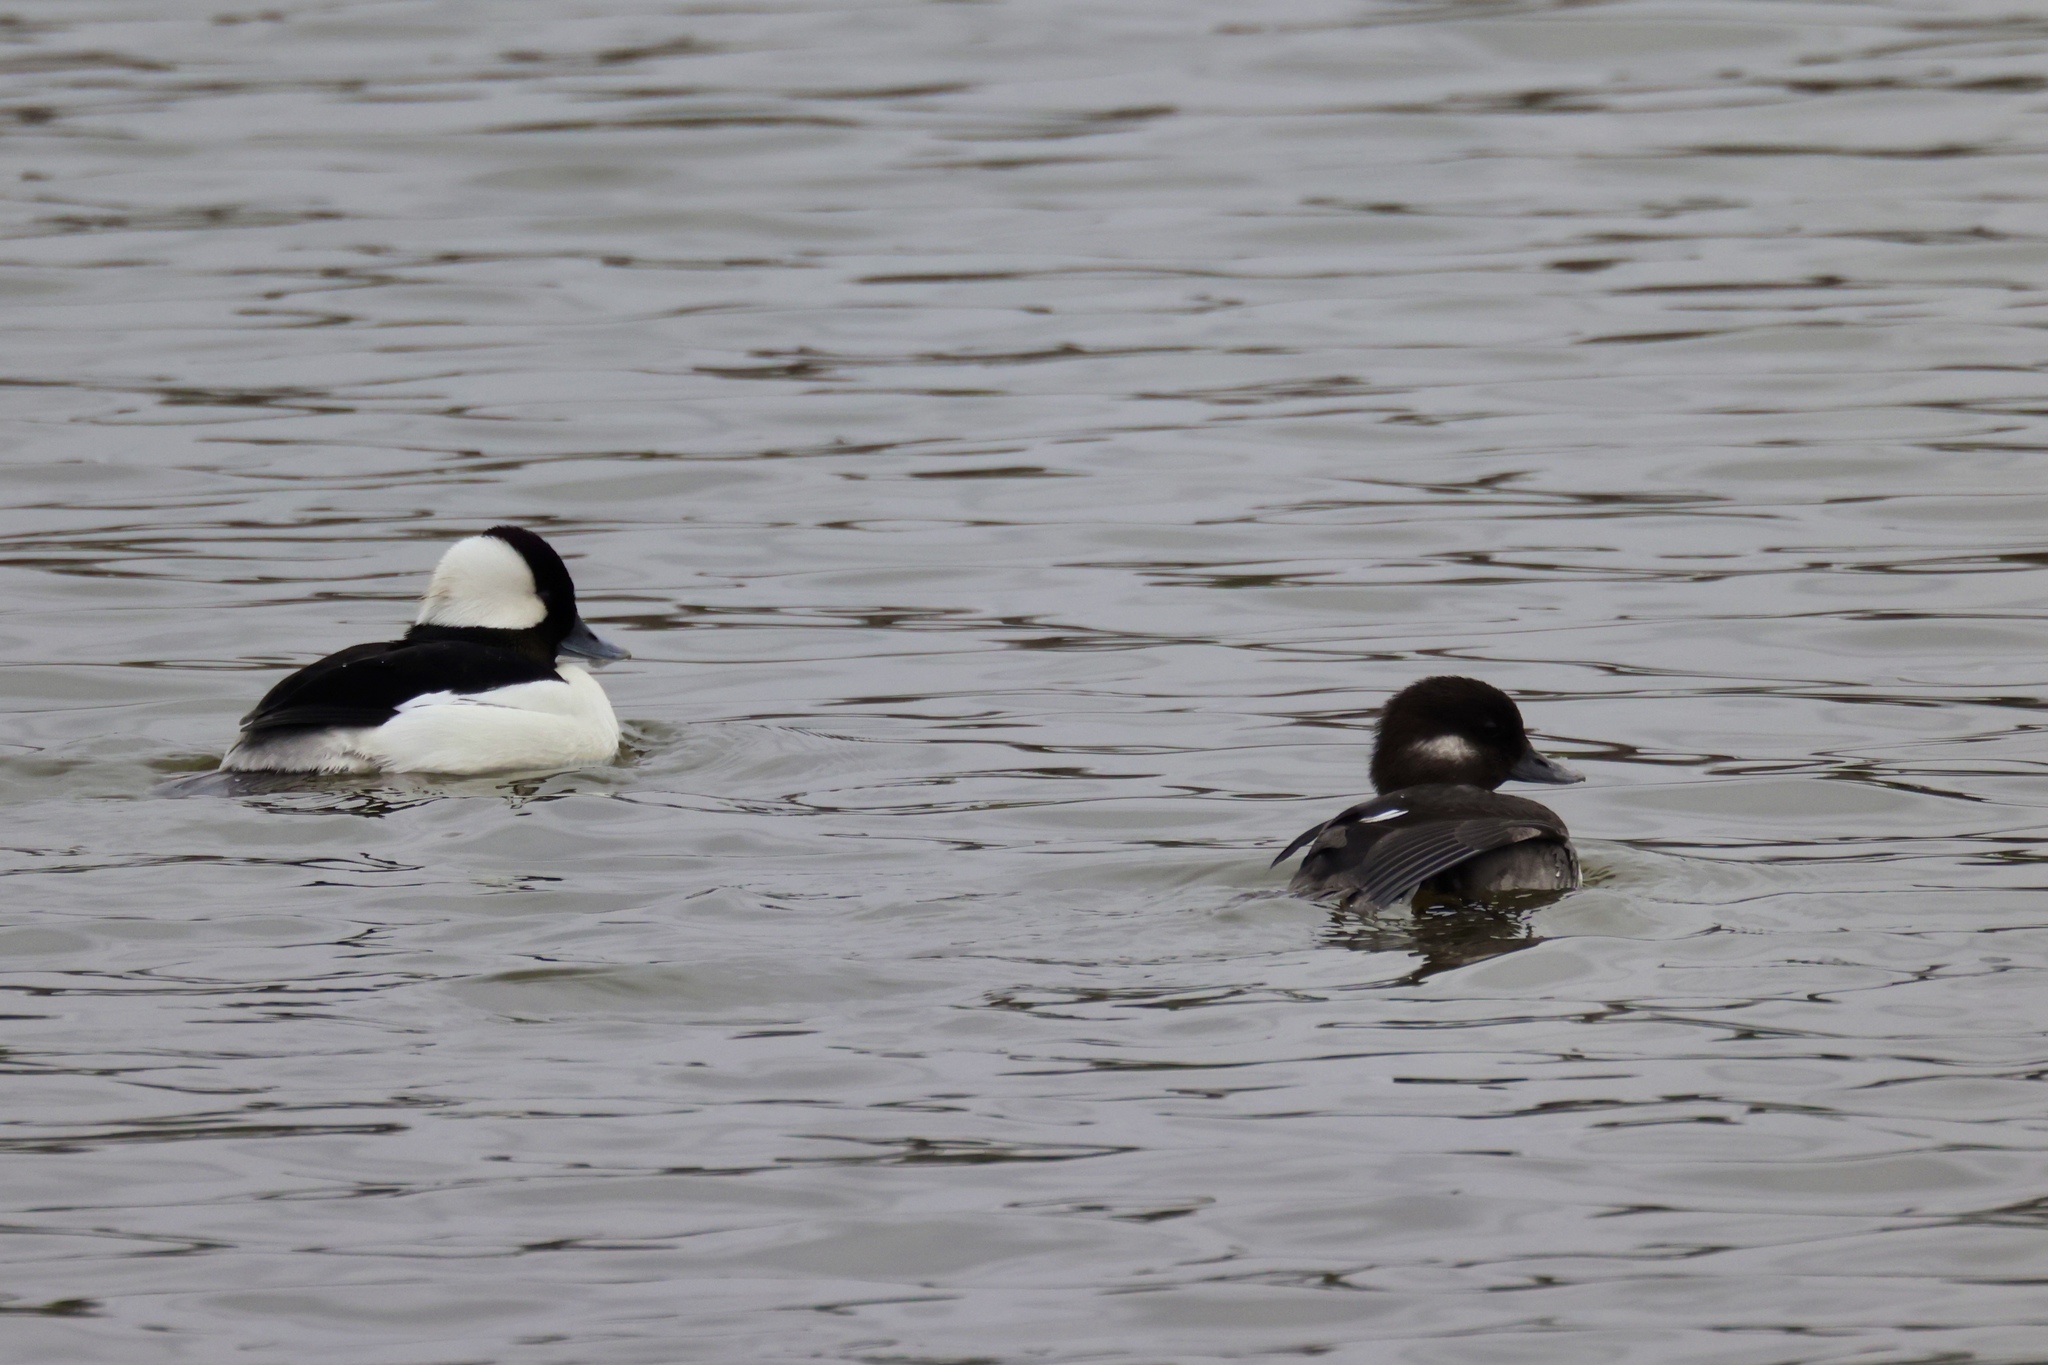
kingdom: Animalia
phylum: Chordata
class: Aves
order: Anseriformes
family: Anatidae
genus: Bucephala
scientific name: Bucephala albeola
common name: Bufflehead
